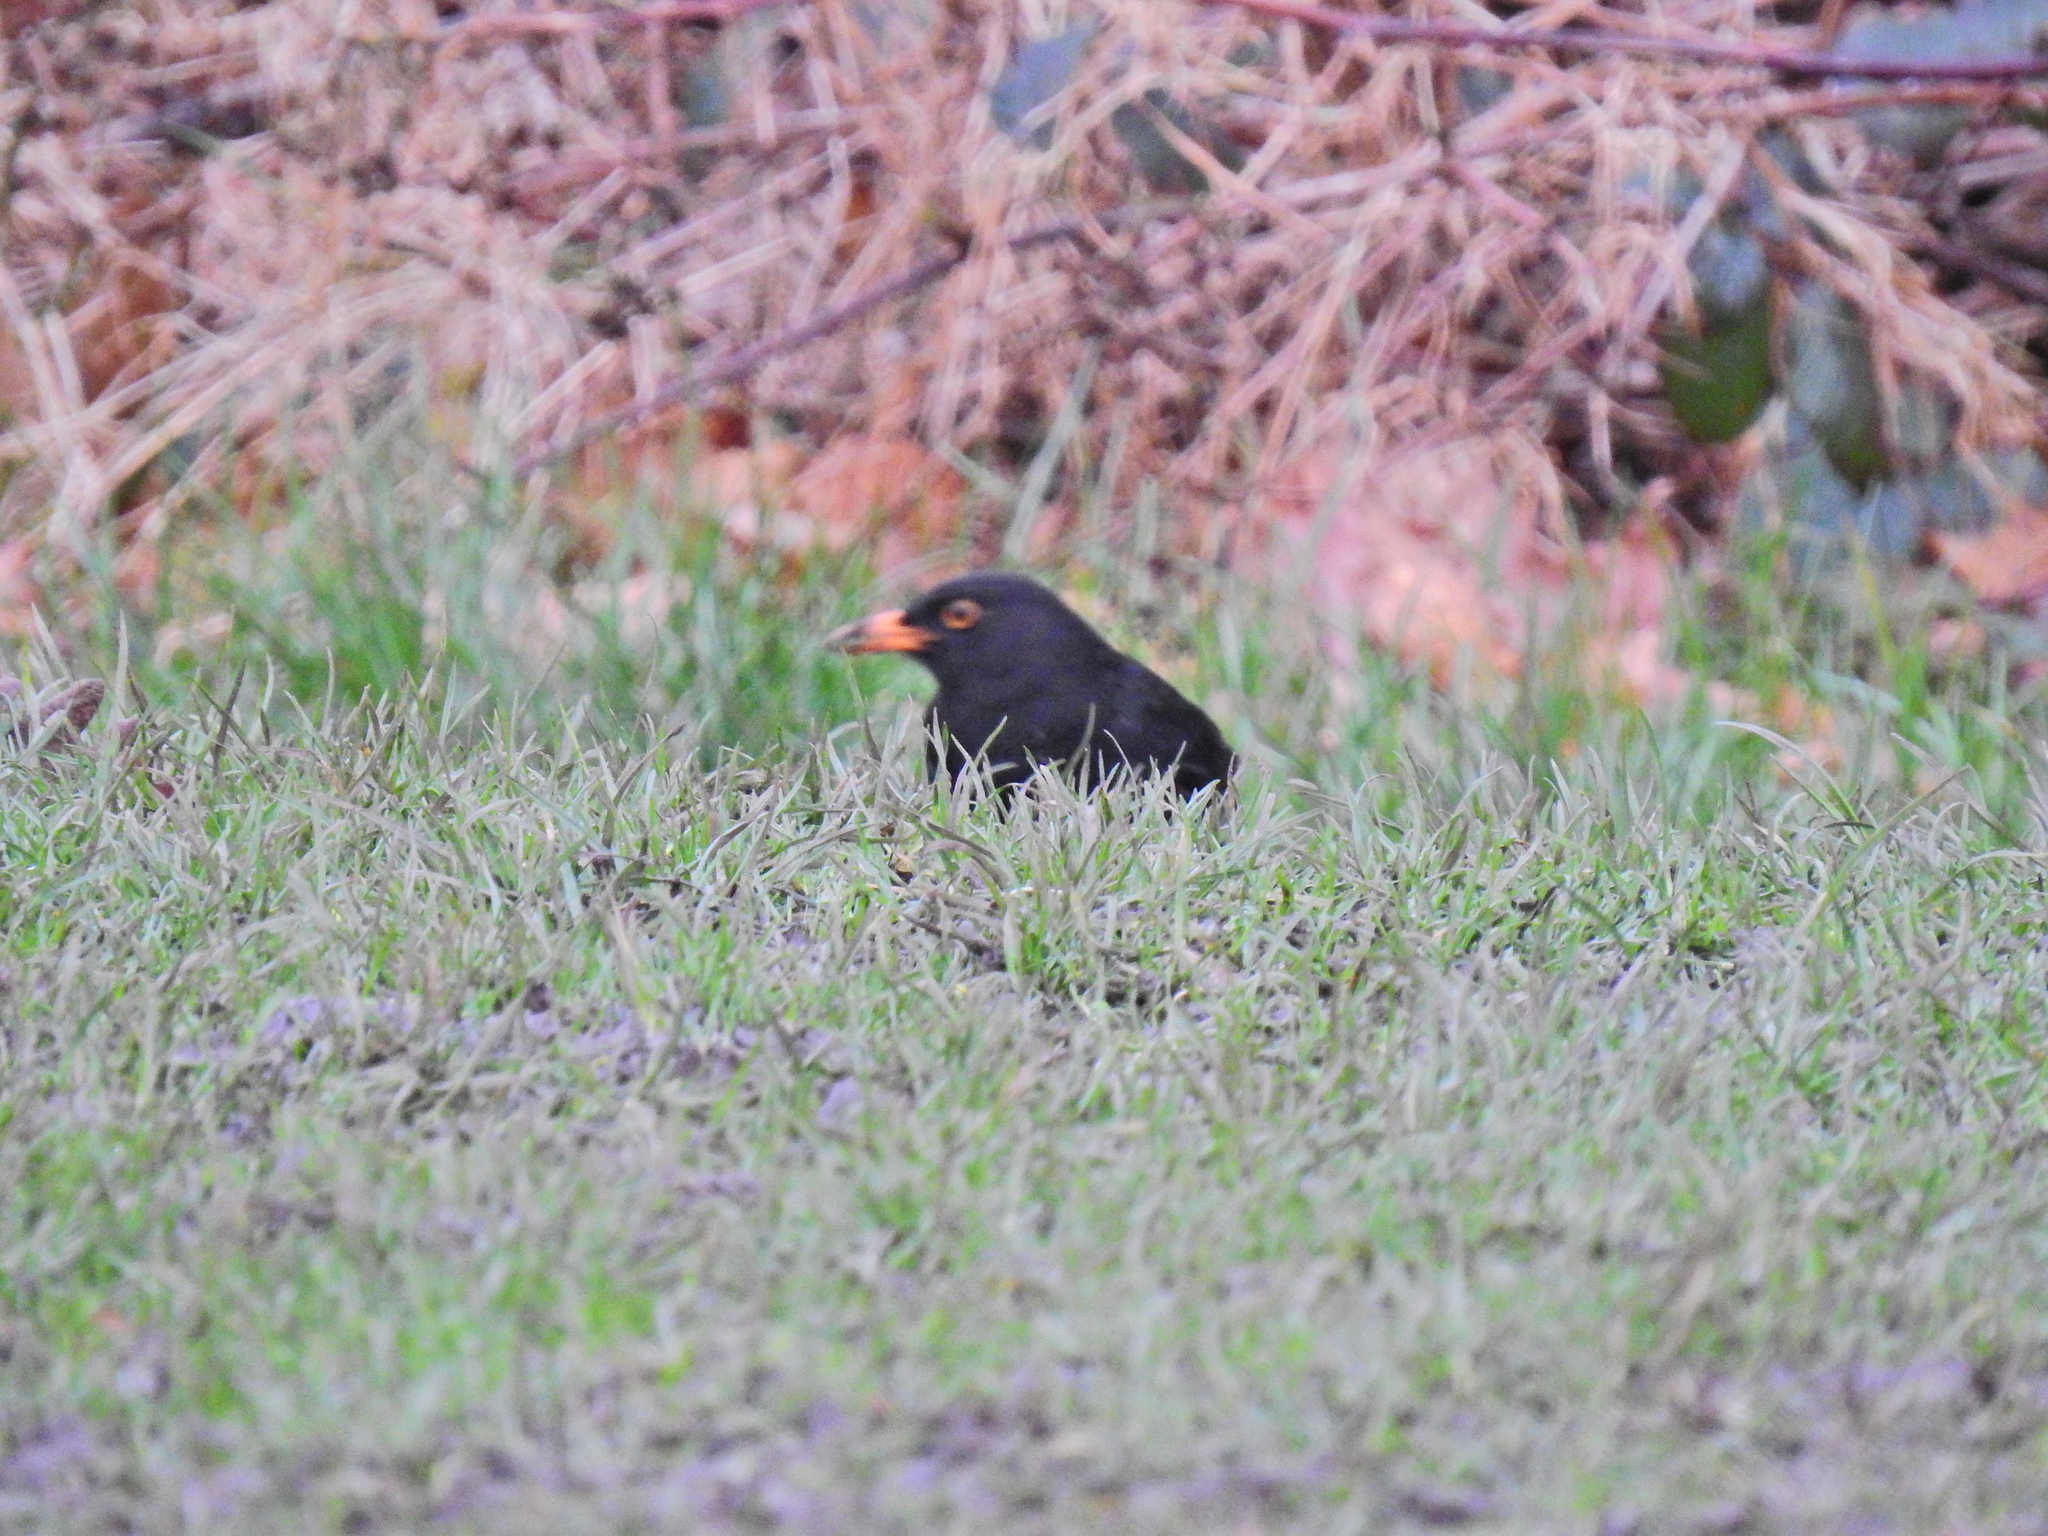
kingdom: Animalia
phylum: Chordata
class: Aves
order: Passeriformes
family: Turdidae
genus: Turdus
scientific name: Turdus merula
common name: Common blackbird
